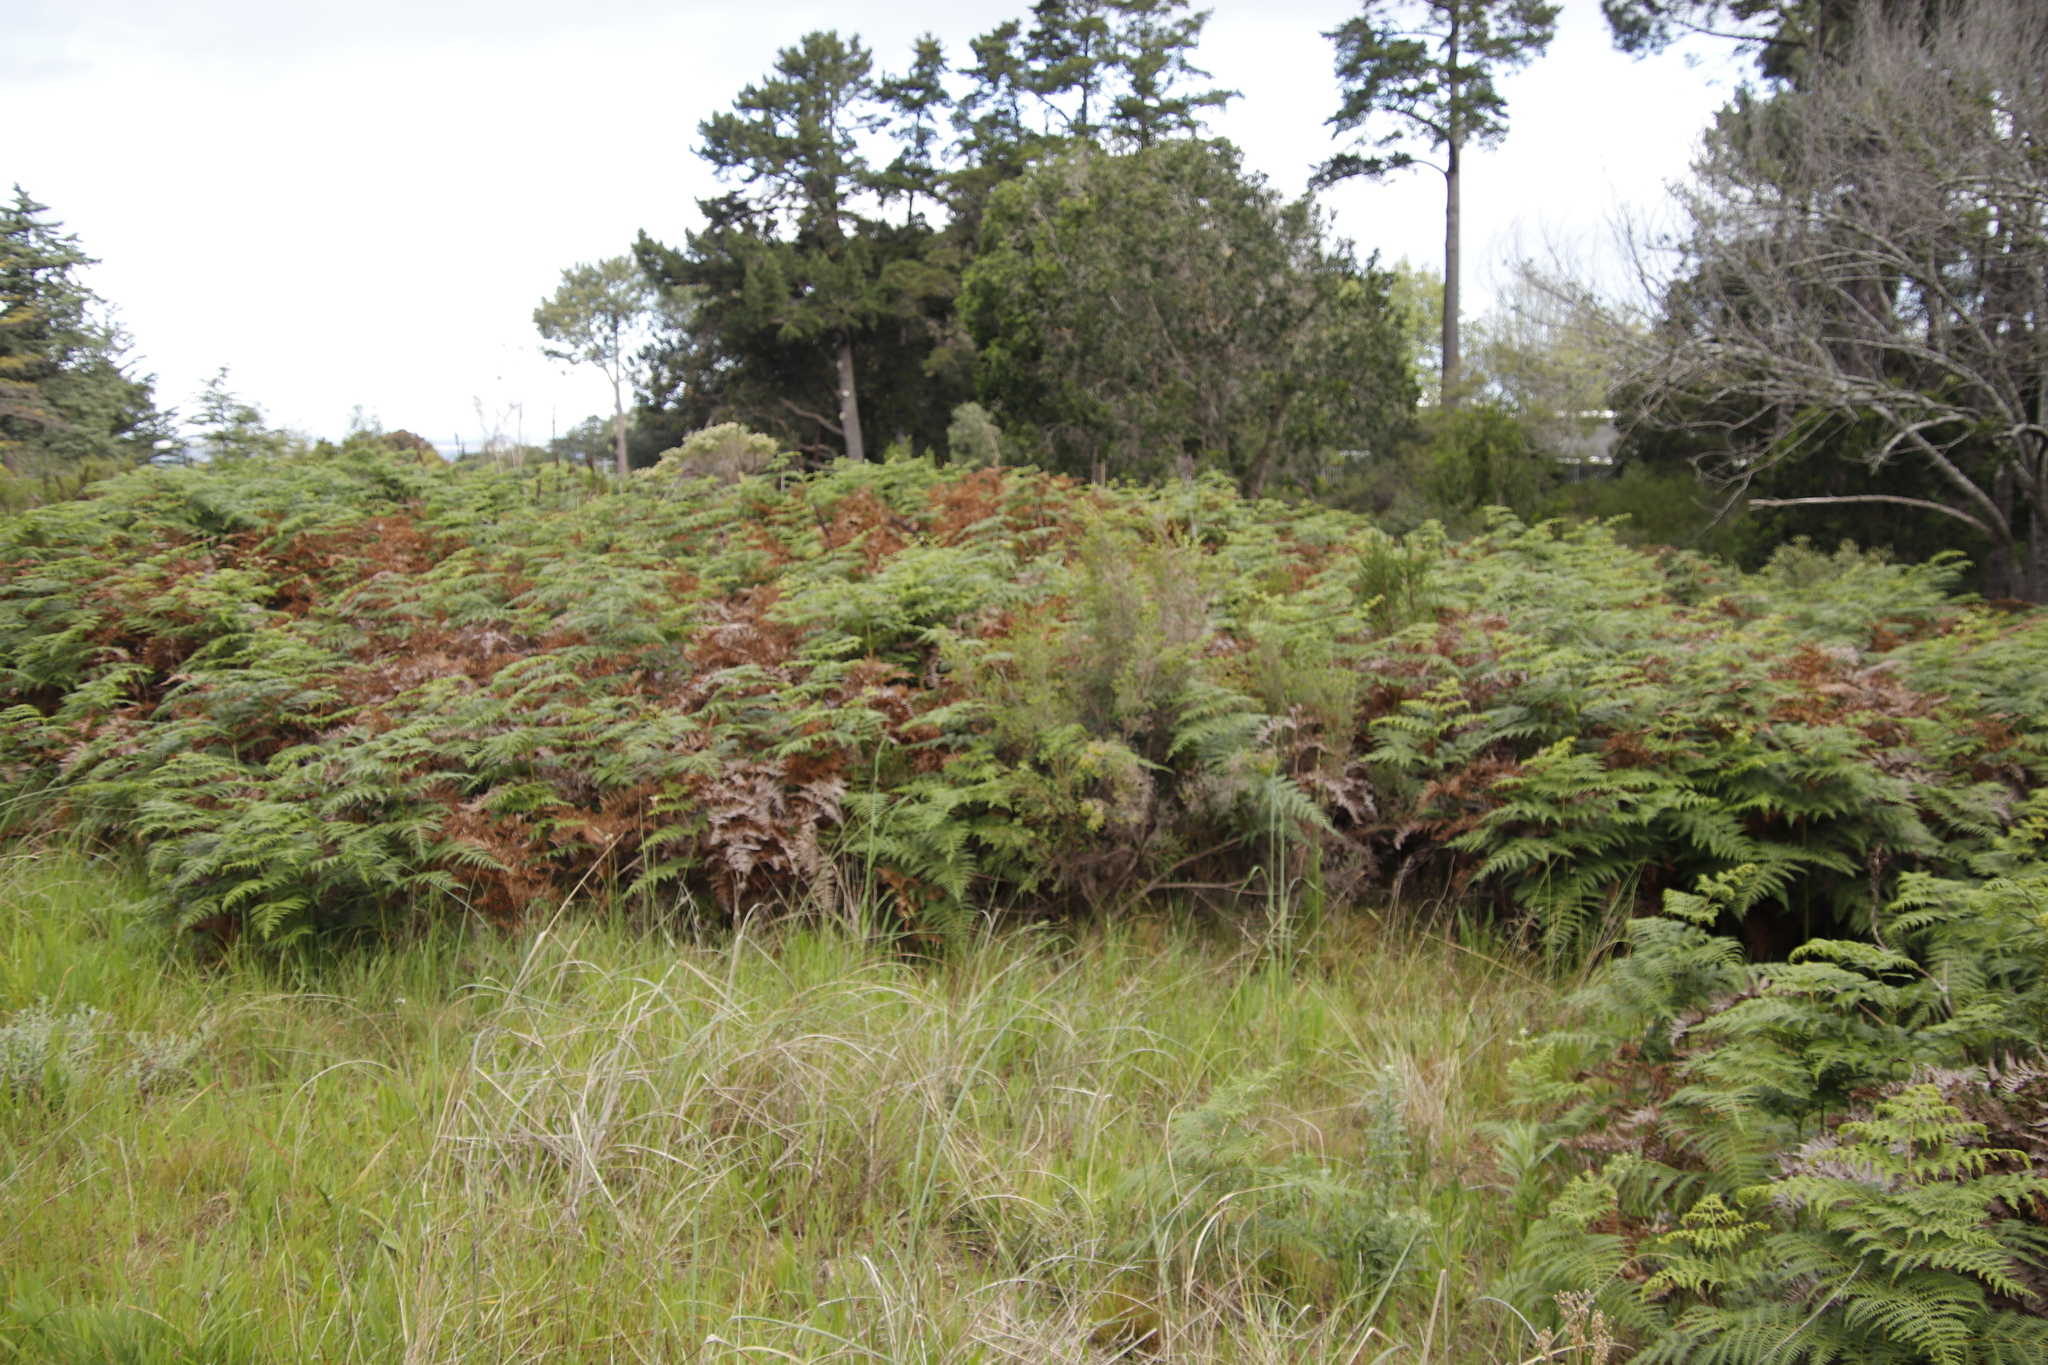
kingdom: Plantae
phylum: Tracheophyta
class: Polypodiopsida
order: Polypodiales
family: Dennstaedtiaceae
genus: Pteridium
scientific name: Pteridium aquilinum
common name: Bracken
